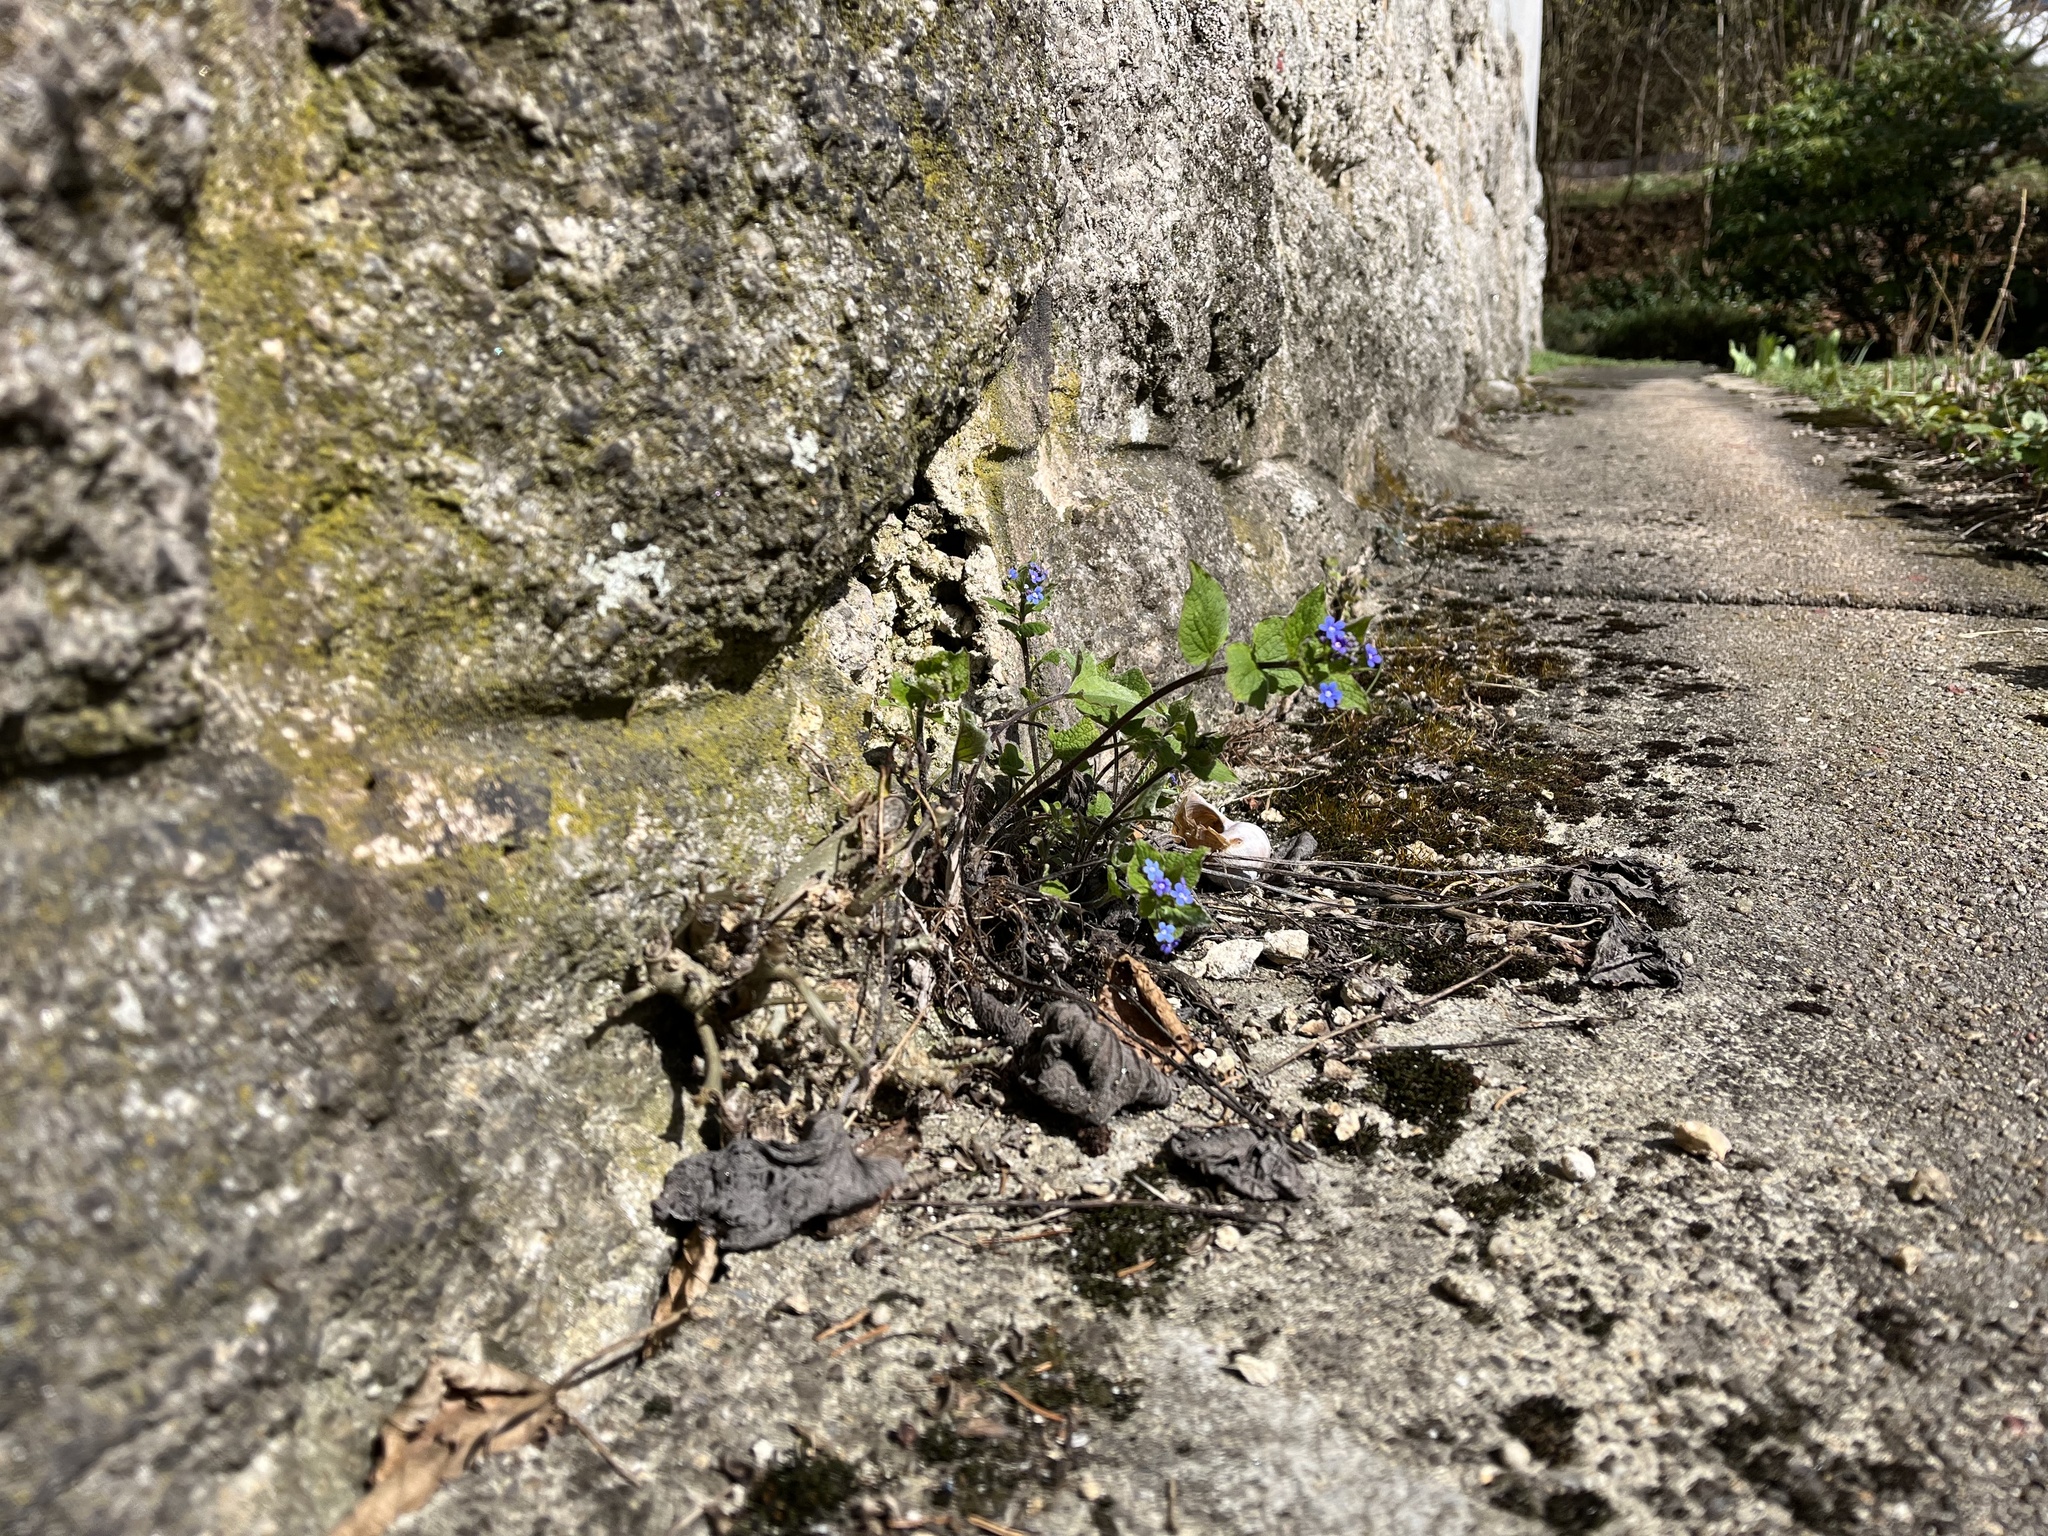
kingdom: Plantae
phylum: Tracheophyta
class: Magnoliopsida
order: Boraginales
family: Boraginaceae
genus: Brunnera
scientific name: Brunnera macrophylla
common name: Great forget-me-not
